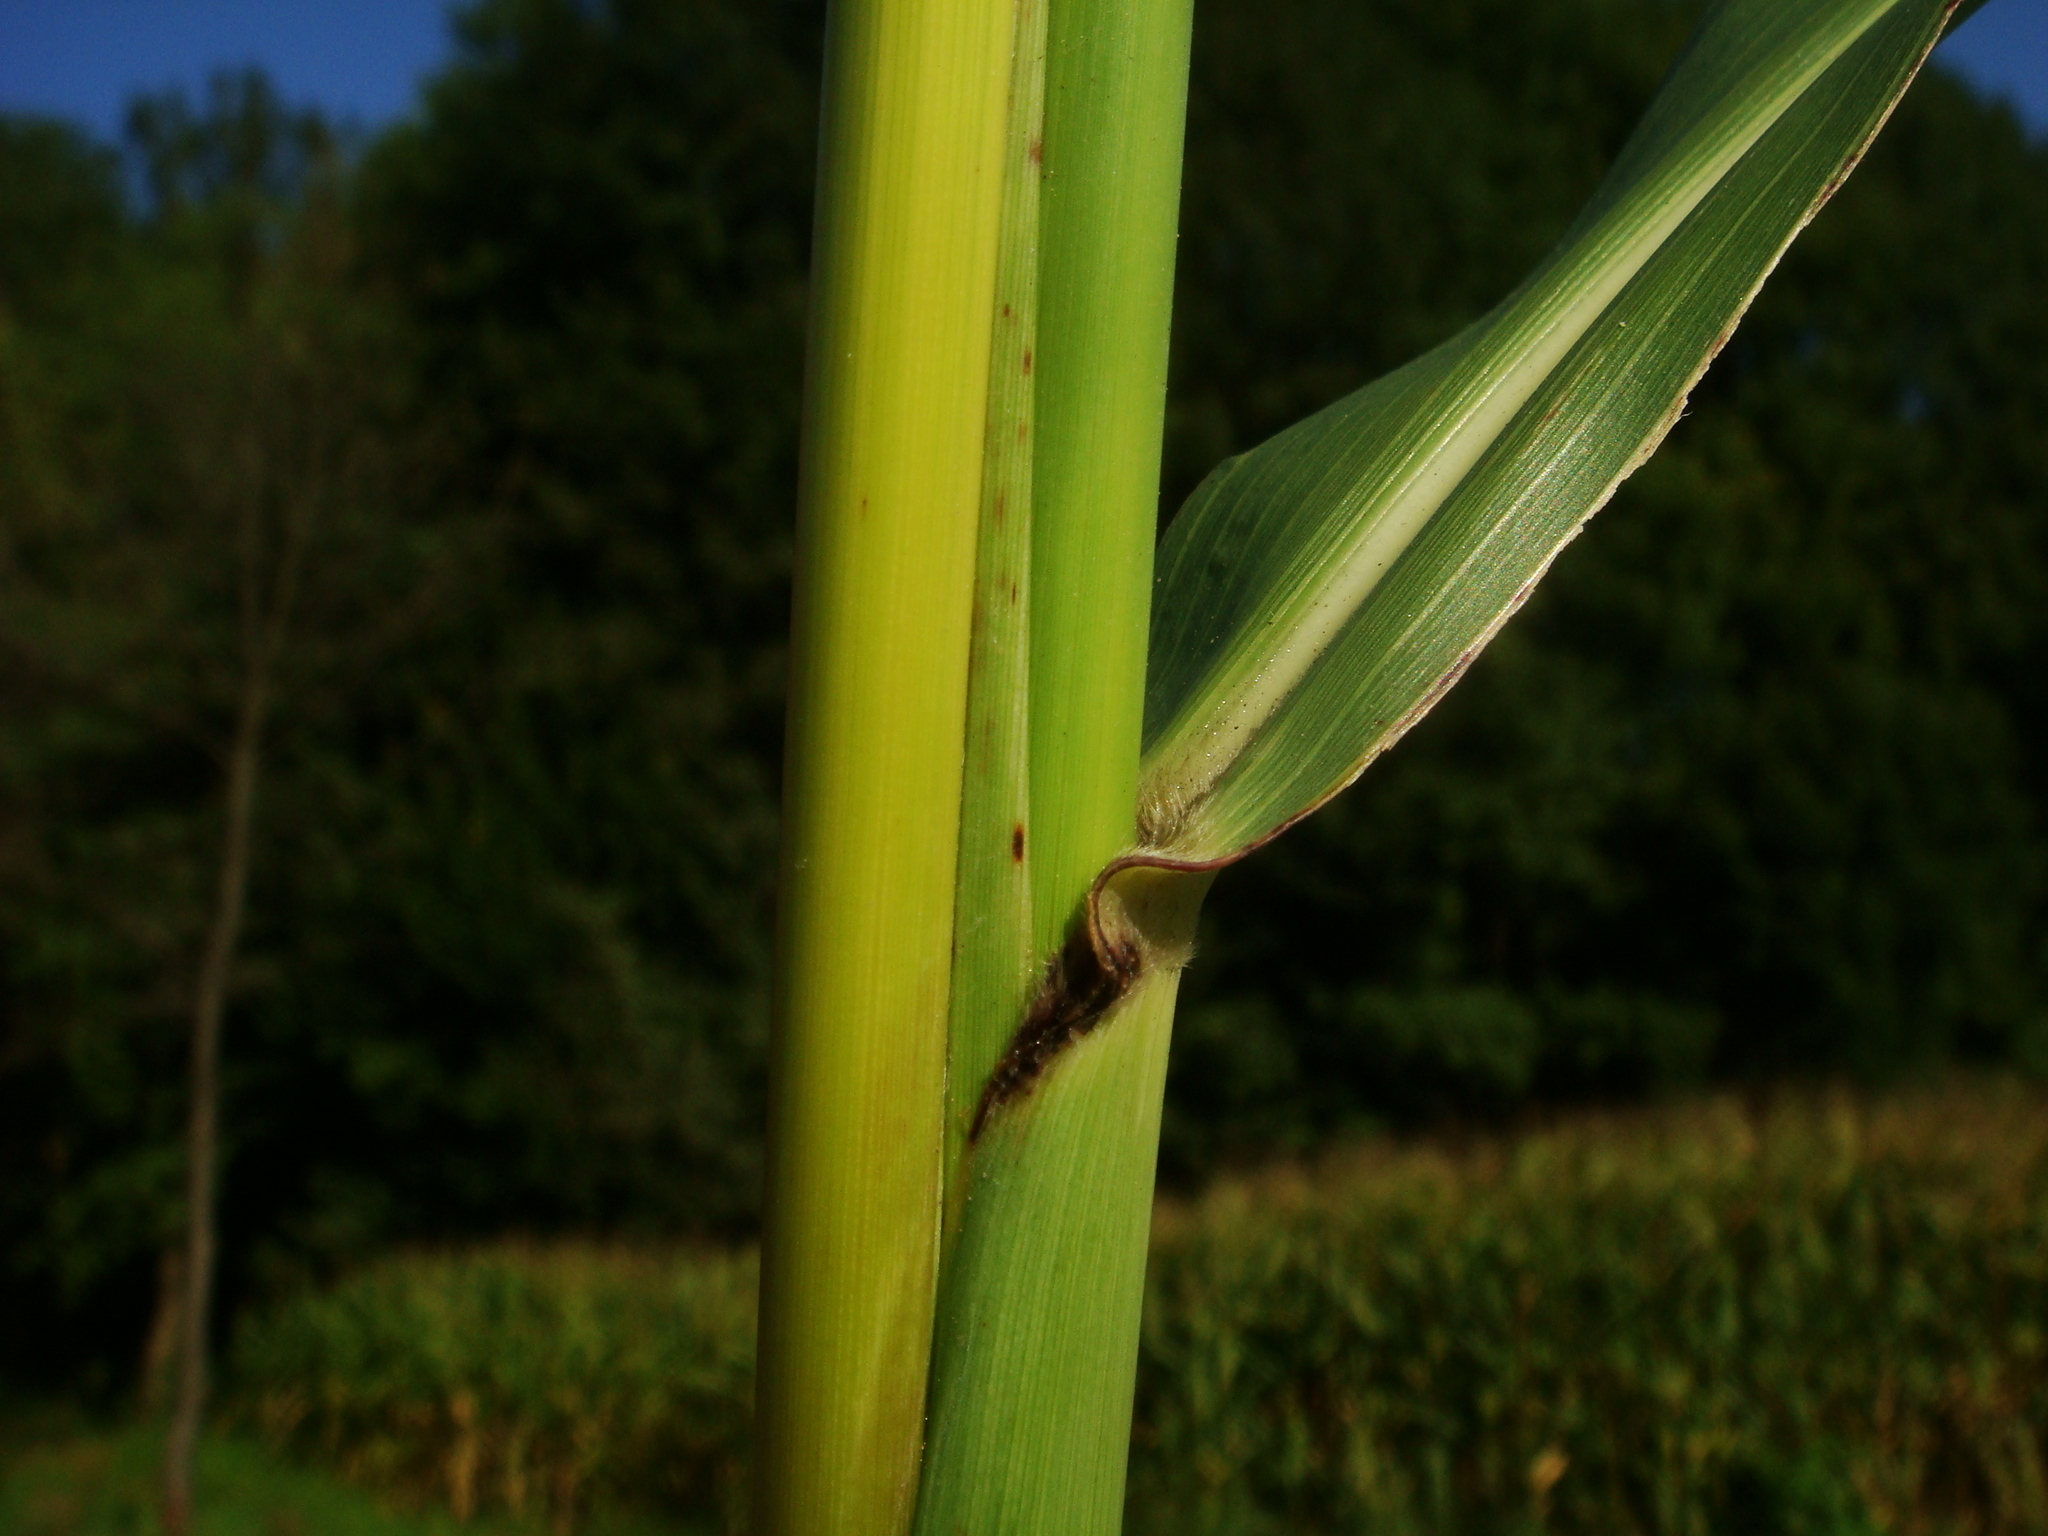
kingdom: Plantae
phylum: Tracheophyta
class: Liliopsida
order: Poales
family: Poaceae
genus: Sorghum
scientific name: Sorghum halepense
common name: Johnson-grass
